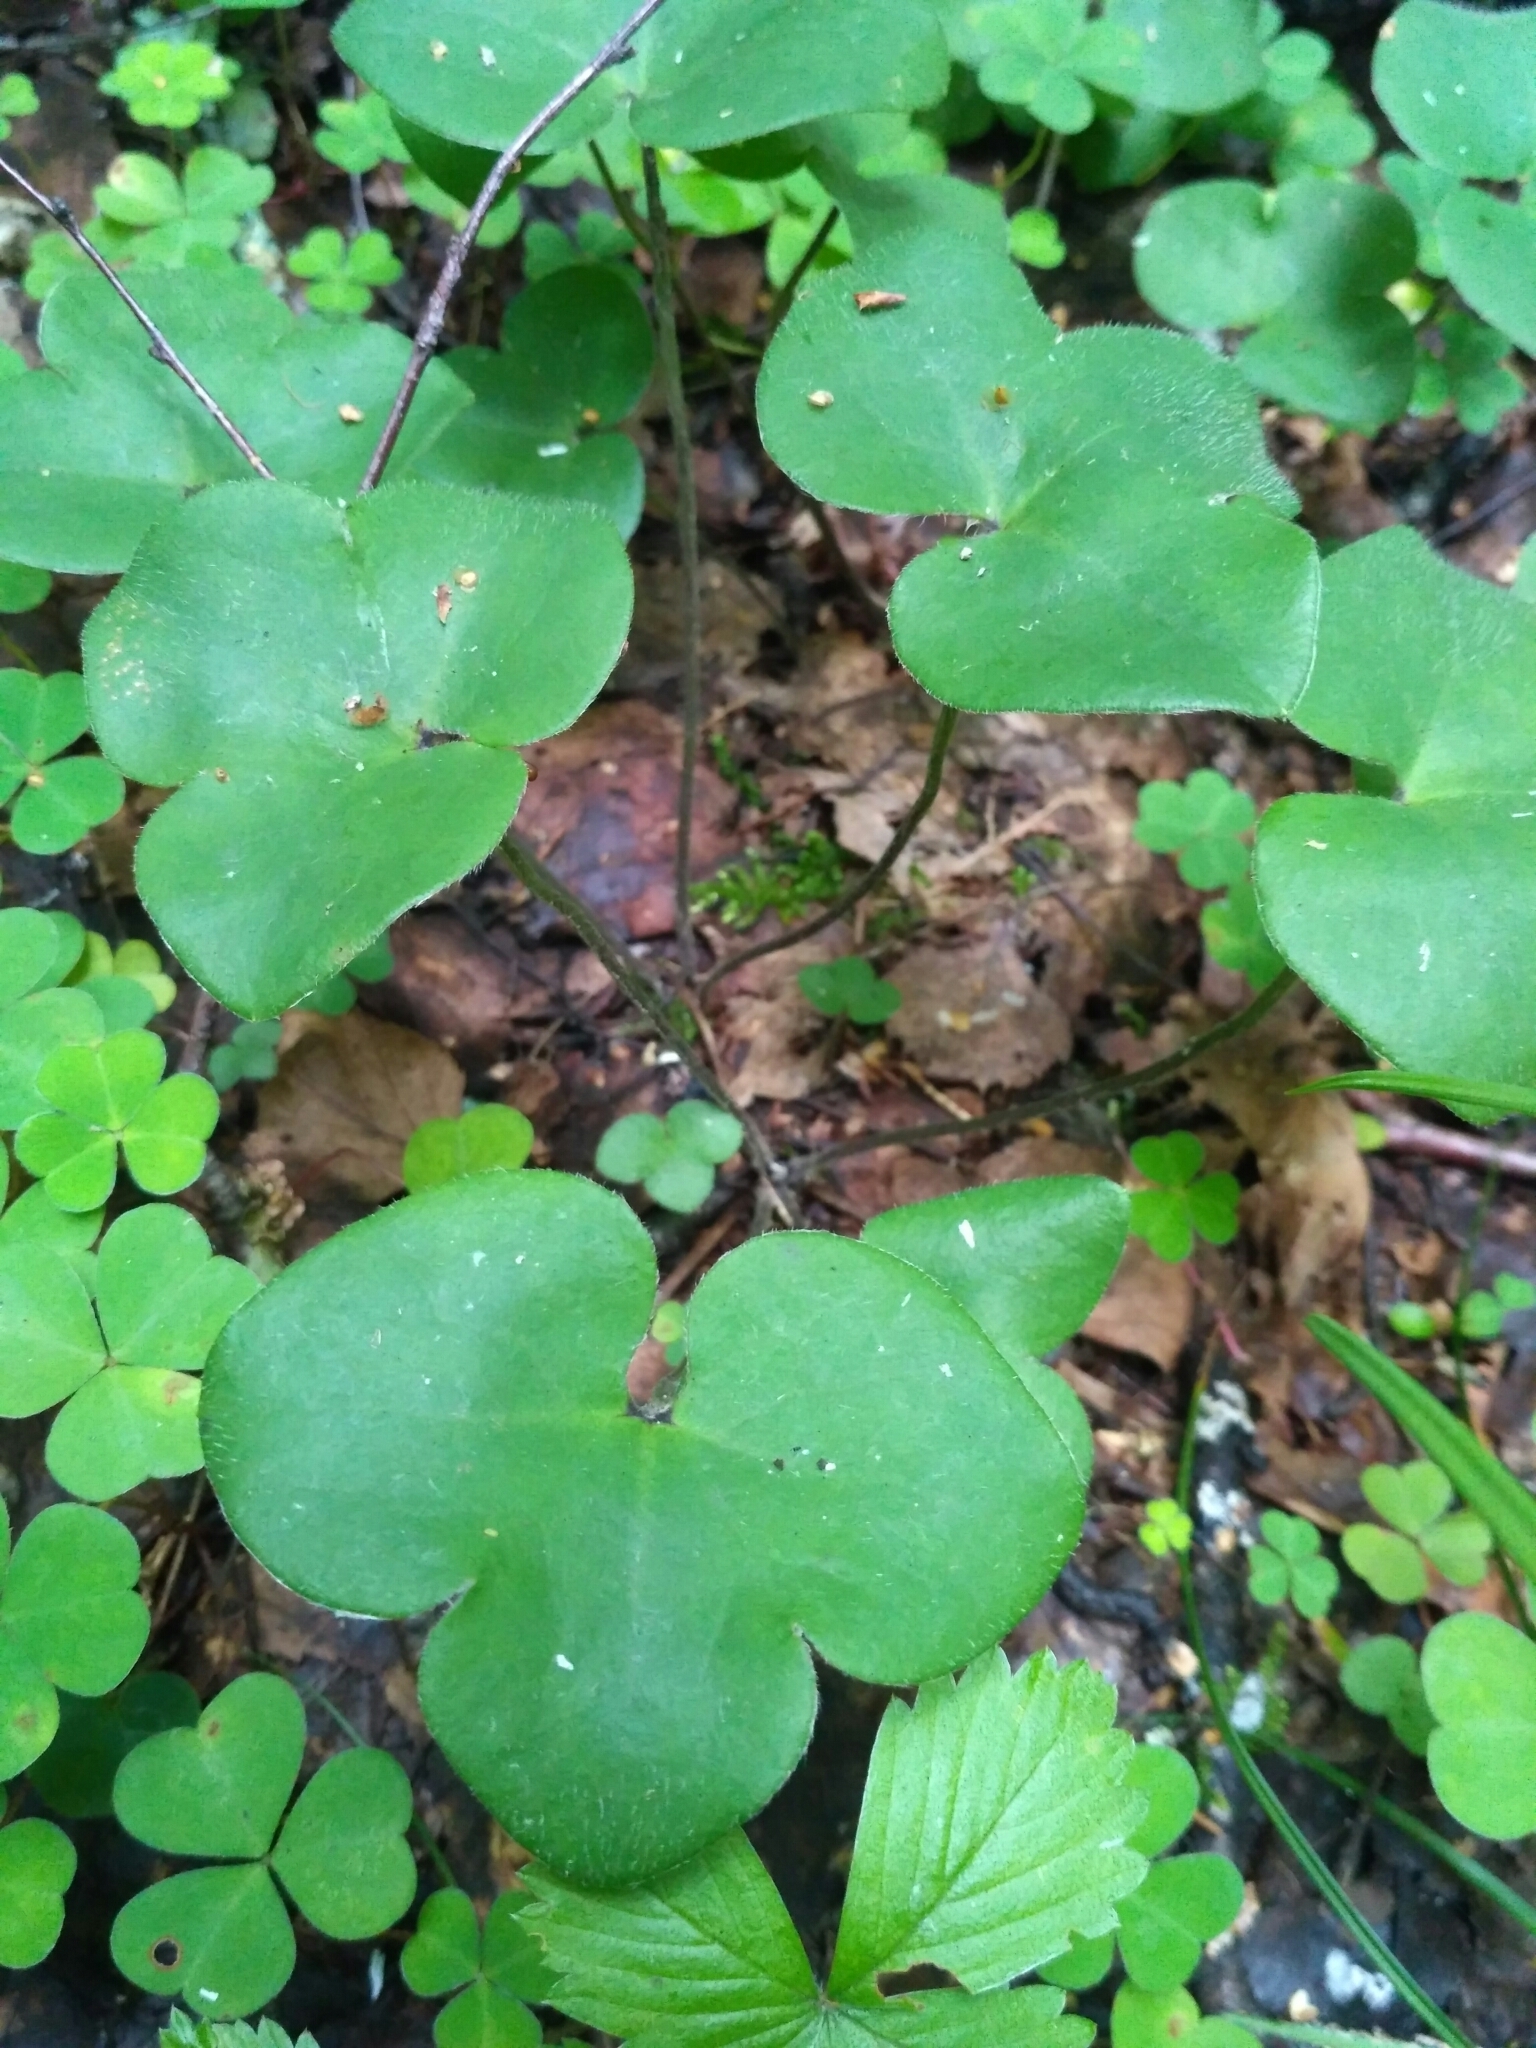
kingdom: Plantae
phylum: Tracheophyta
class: Magnoliopsida
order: Ranunculales
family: Ranunculaceae
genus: Hepatica
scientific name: Hepatica nobilis
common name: Liverleaf
